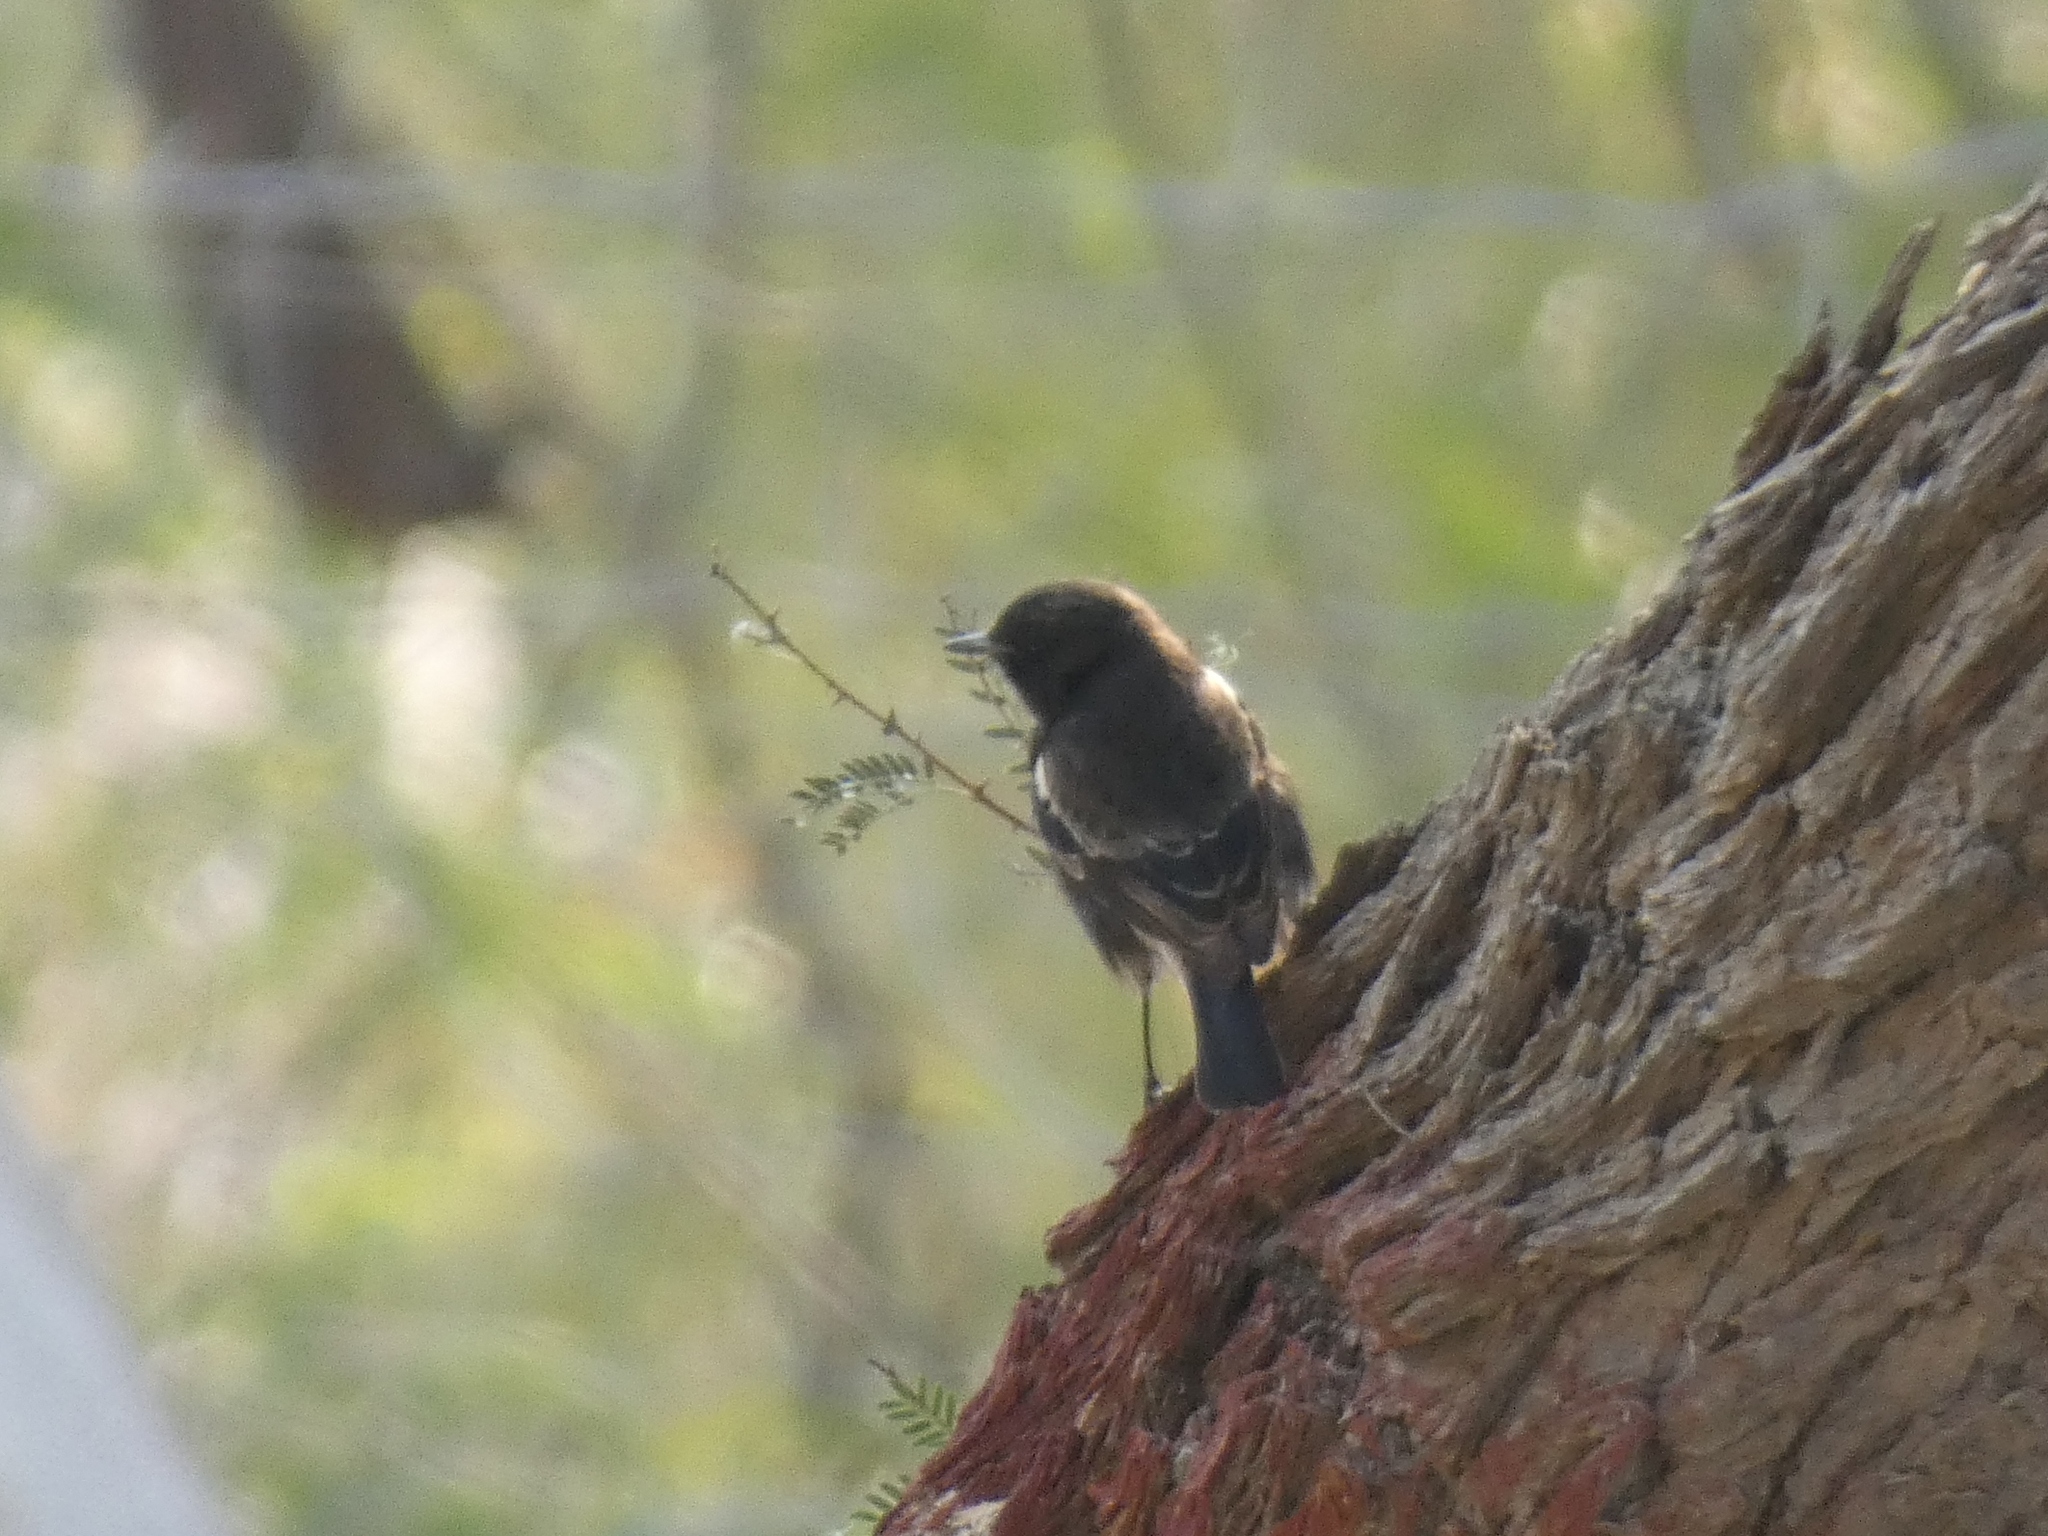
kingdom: Animalia
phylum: Chordata
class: Aves
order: Passeriformes
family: Muscicapidae
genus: Saxicola
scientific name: Saxicola caprata
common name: Pied bush chat
